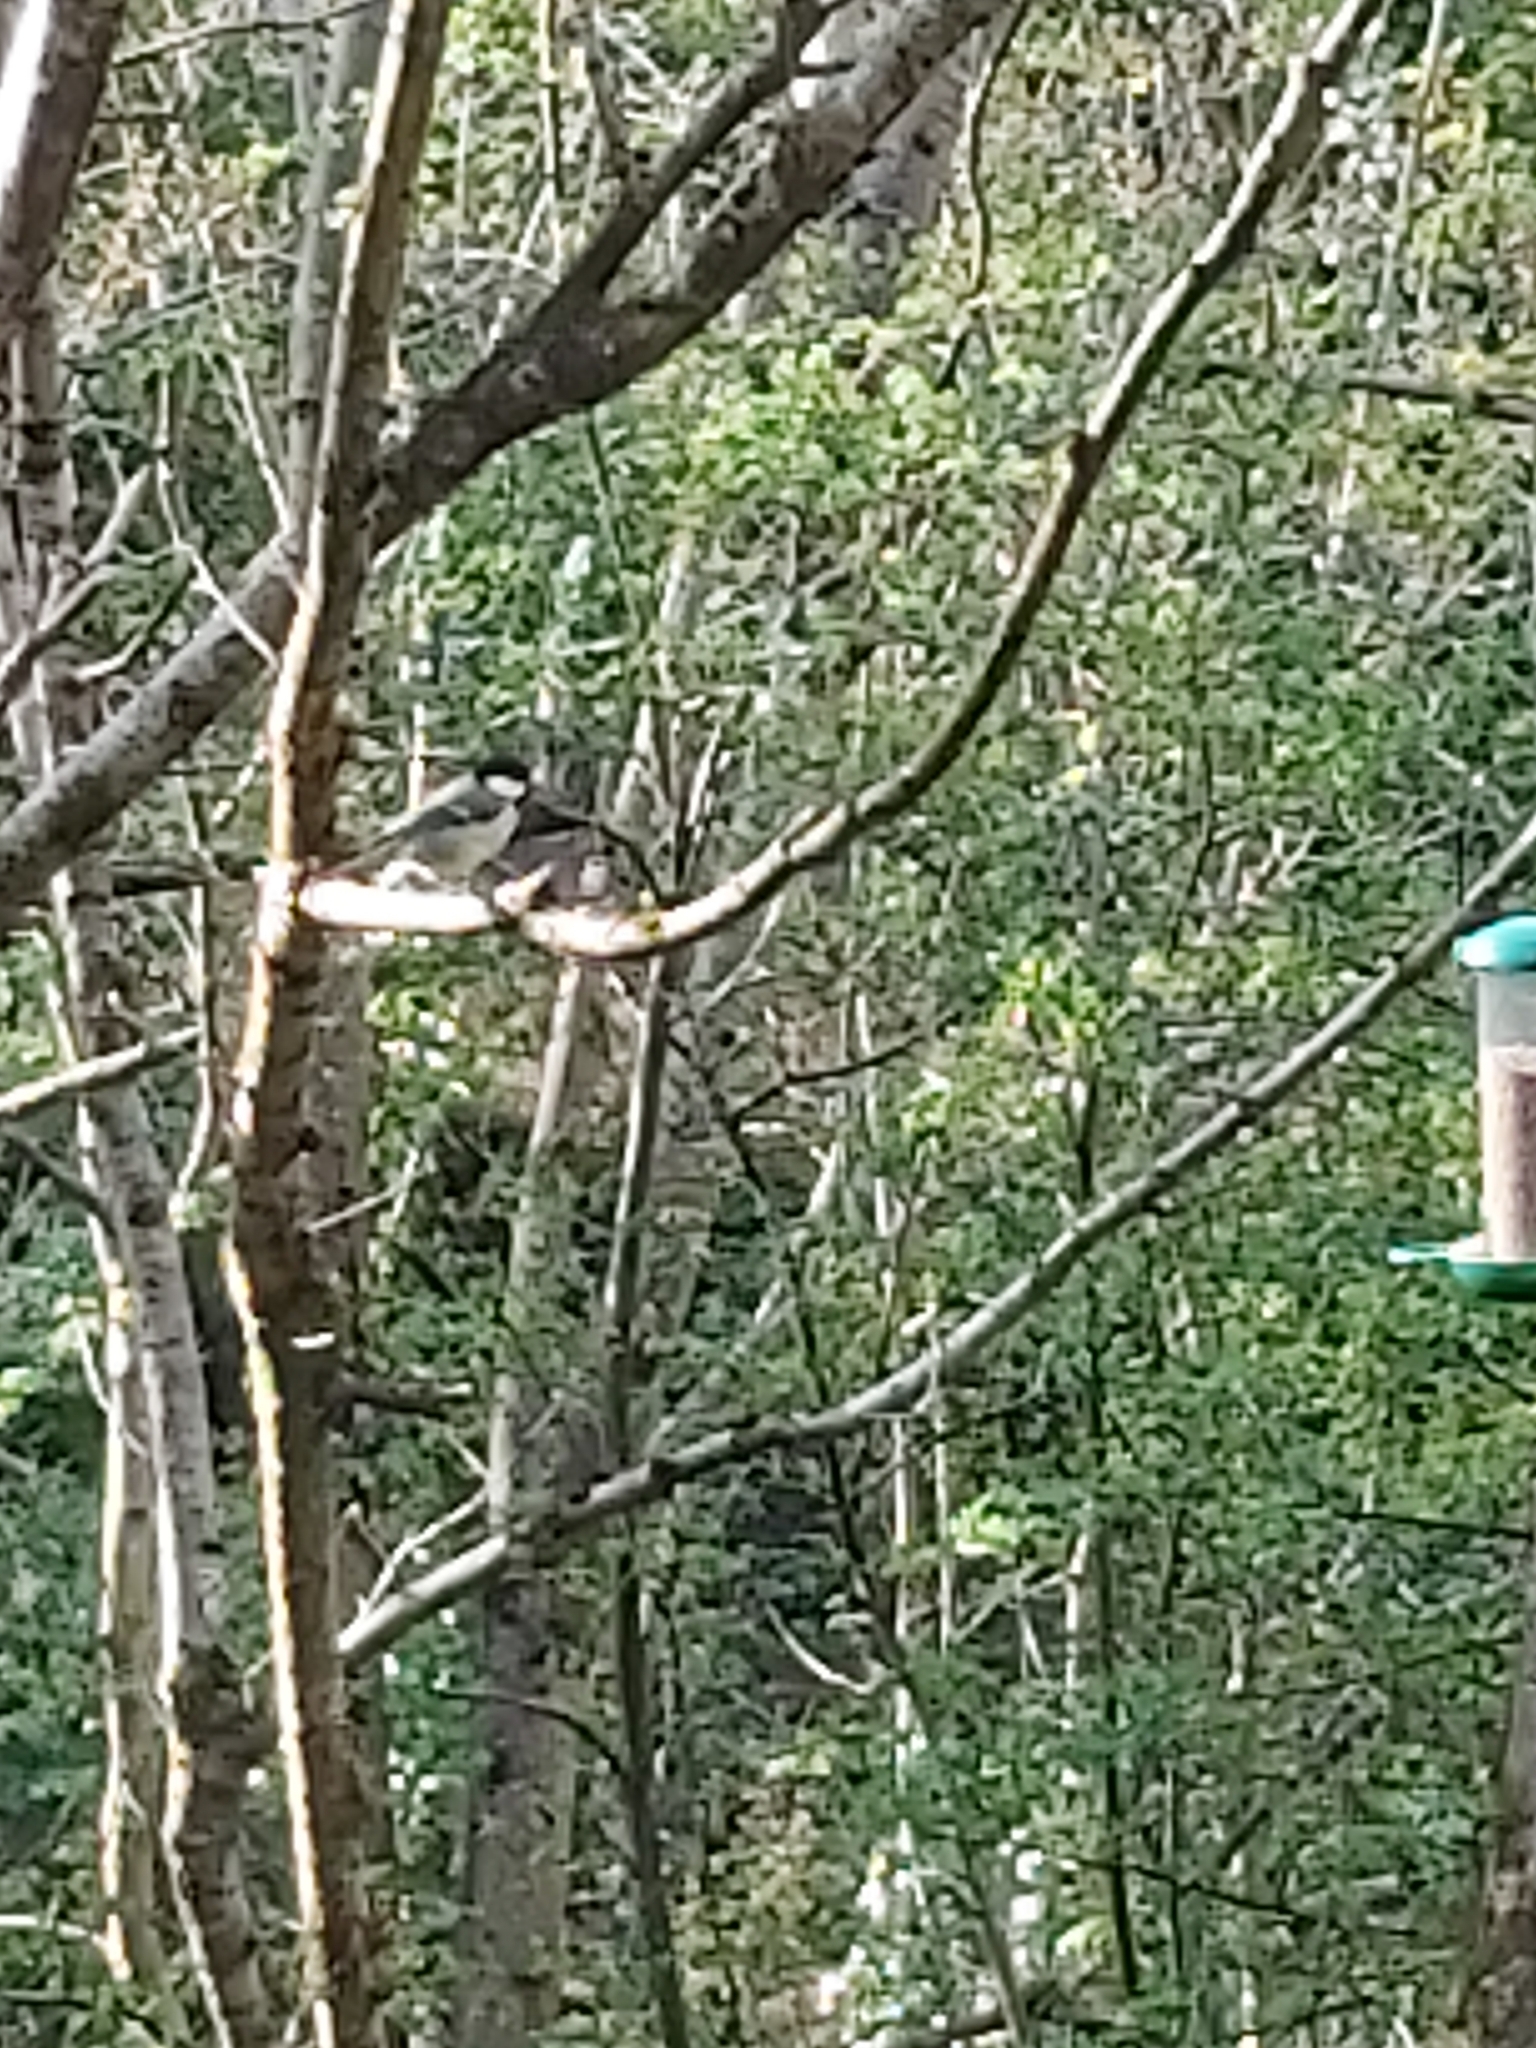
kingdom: Animalia
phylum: Chordata
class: Aves
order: Passeriformes
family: Paridae
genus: Parus
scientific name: Parus major
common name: Great tit
